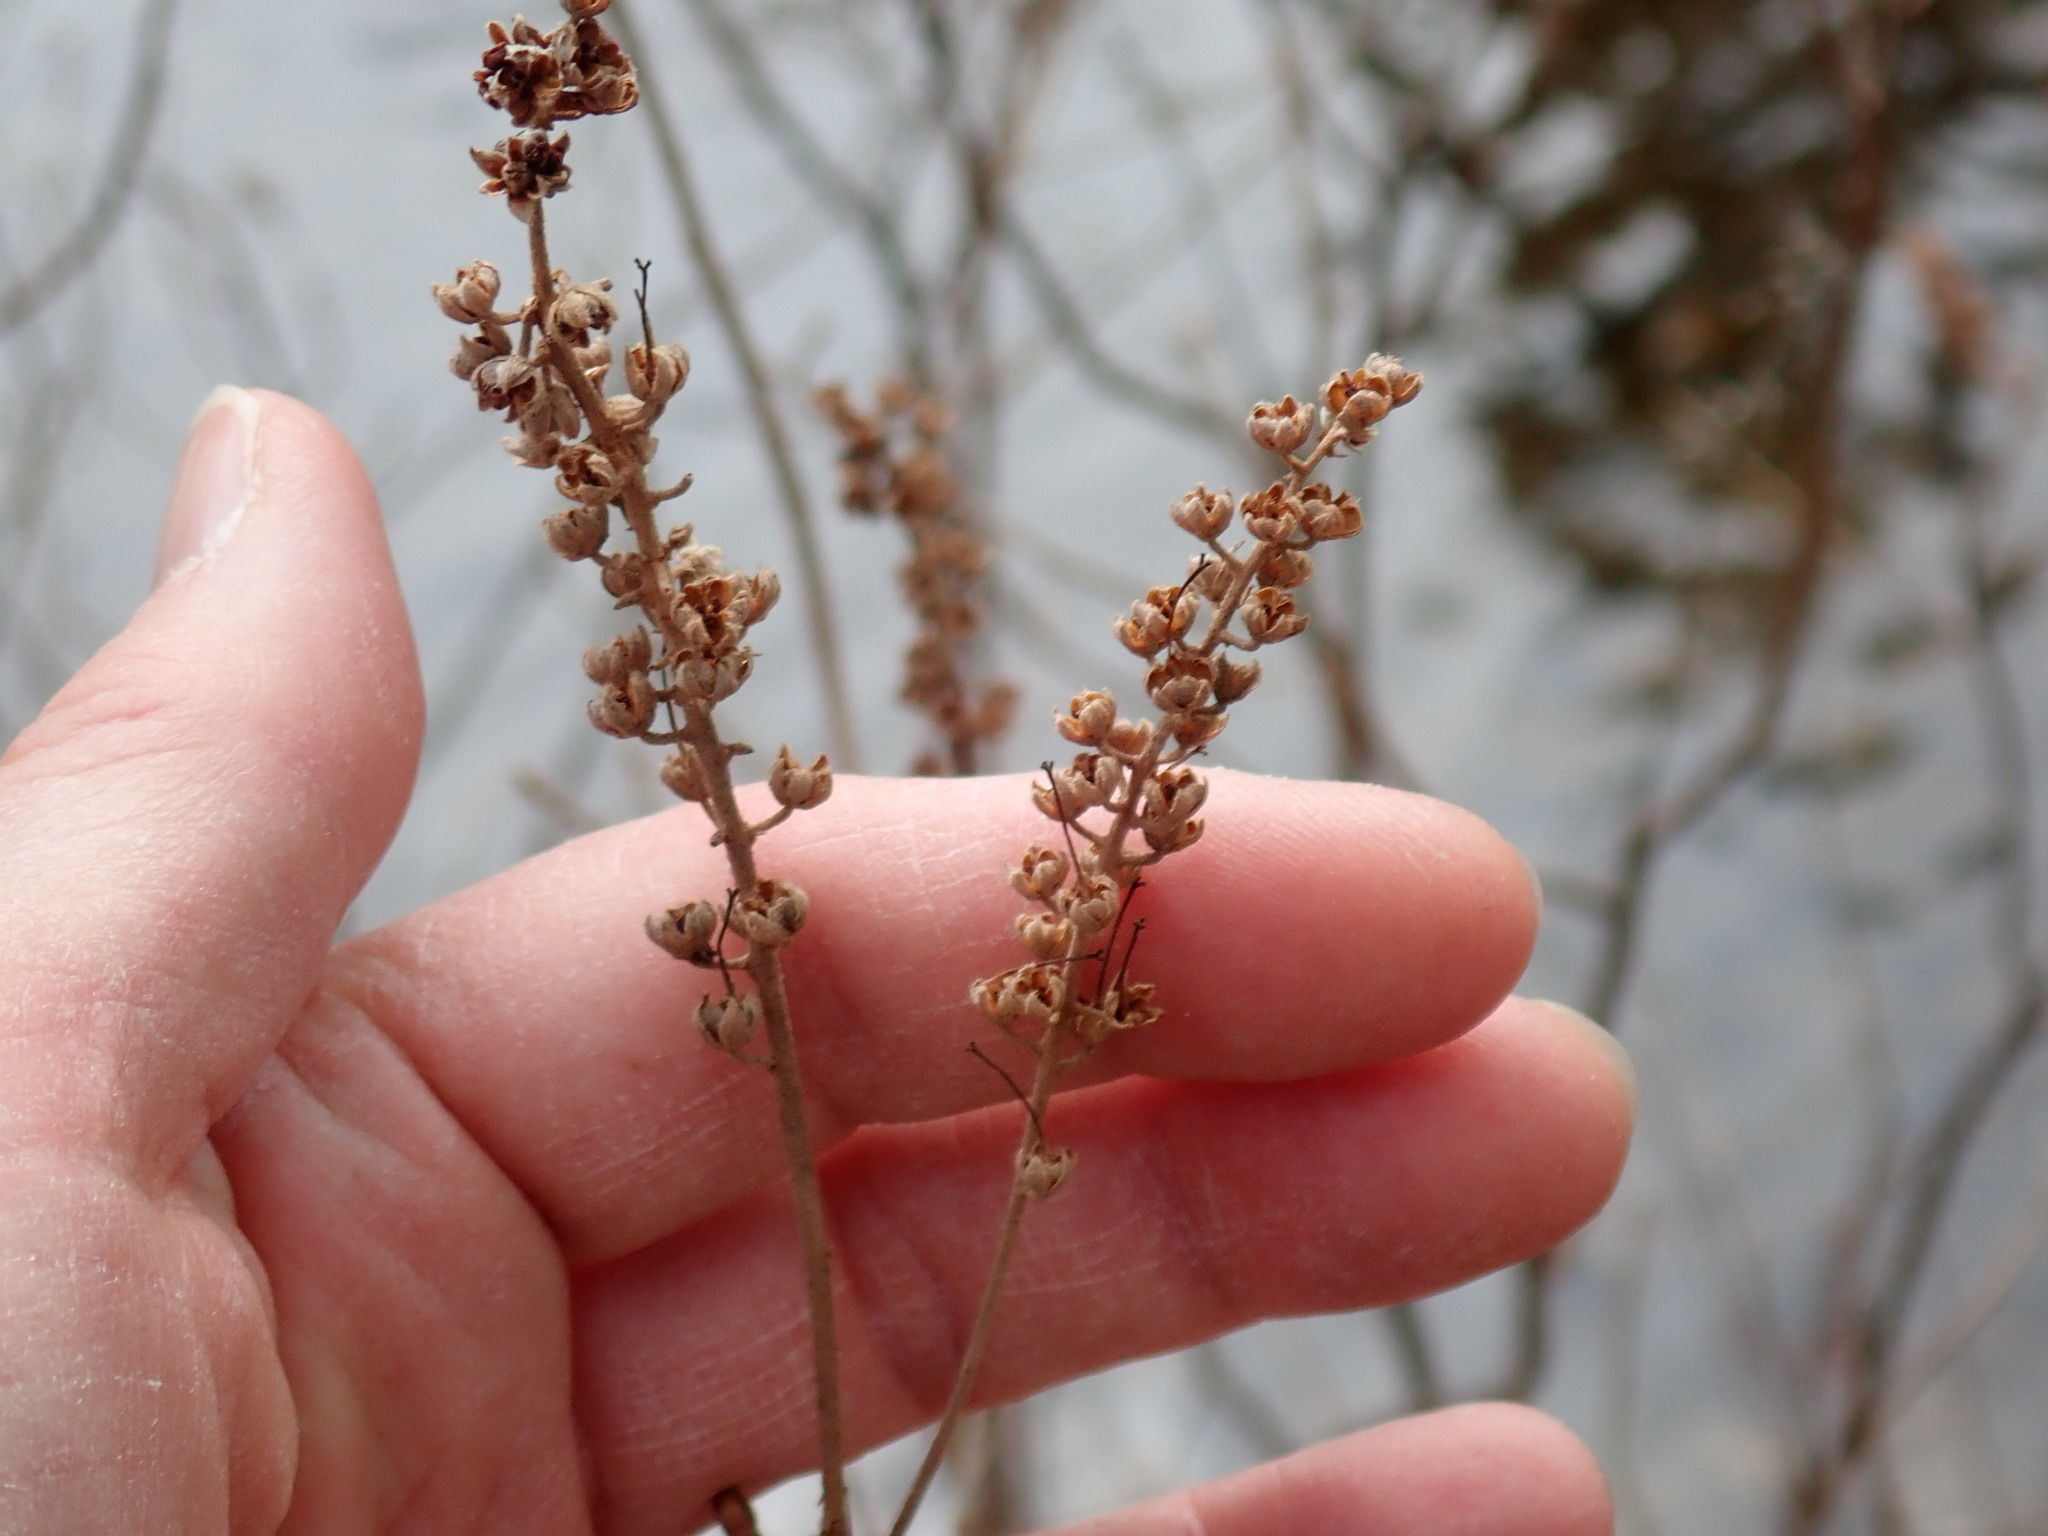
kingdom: Plantae
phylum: Tracheophyta
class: Magnoliopsida
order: Ericales
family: Clethraceae
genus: Clethra
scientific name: Clethra alnifolia
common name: Sweet pepperbush
